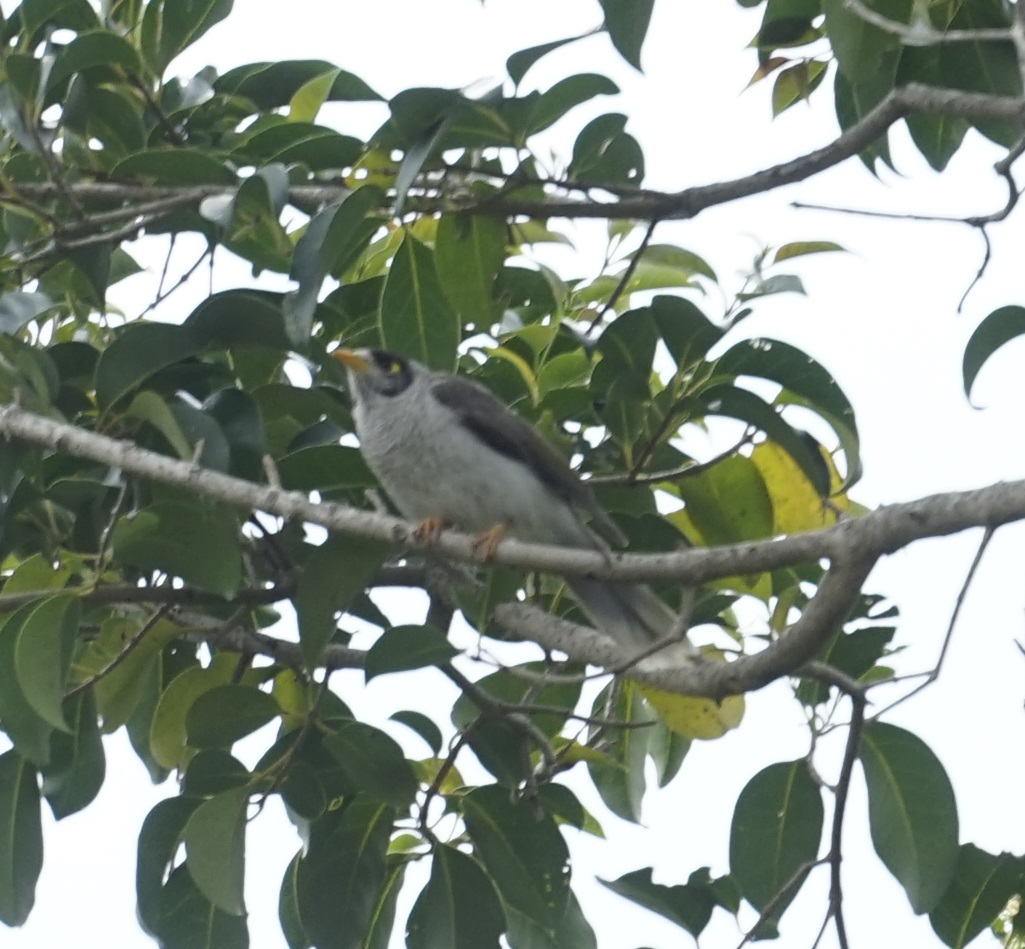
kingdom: Animalia
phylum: Chordata
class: Aves
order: Passeriformes
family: Meliphagidae
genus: Manorina
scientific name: Manorina melanocephala
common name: Noisy miner
